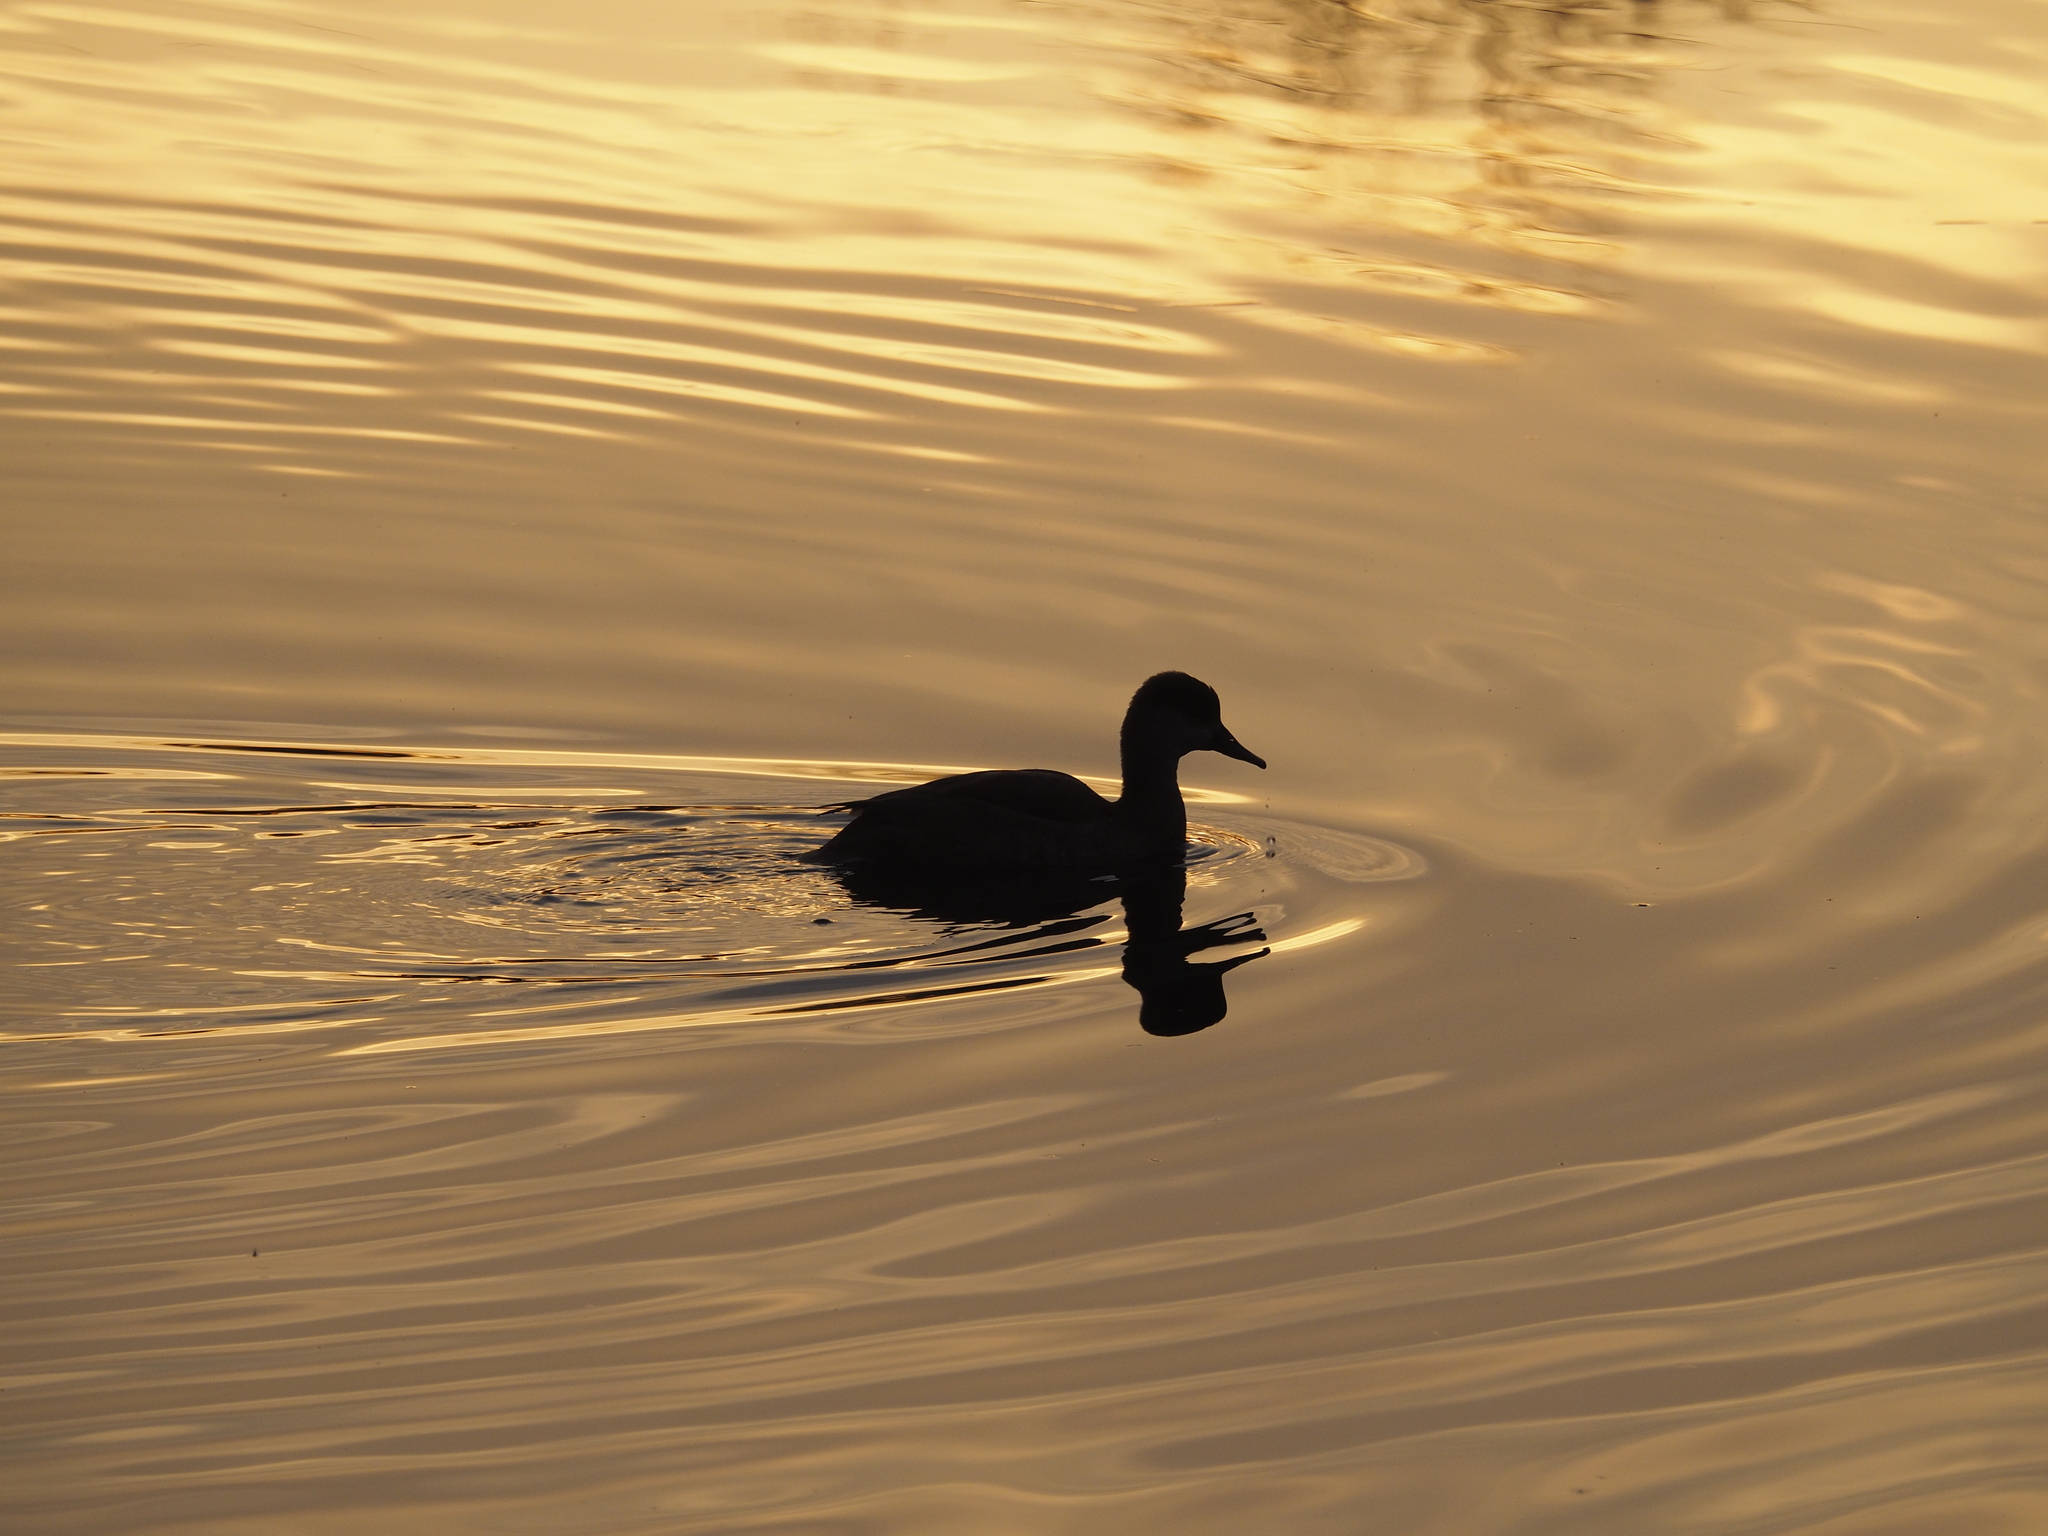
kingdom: Animalia
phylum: Chordata
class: Aves
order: Anseriformes
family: Anatidae
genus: Netta
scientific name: Netta rufina
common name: Red-crested pochard
